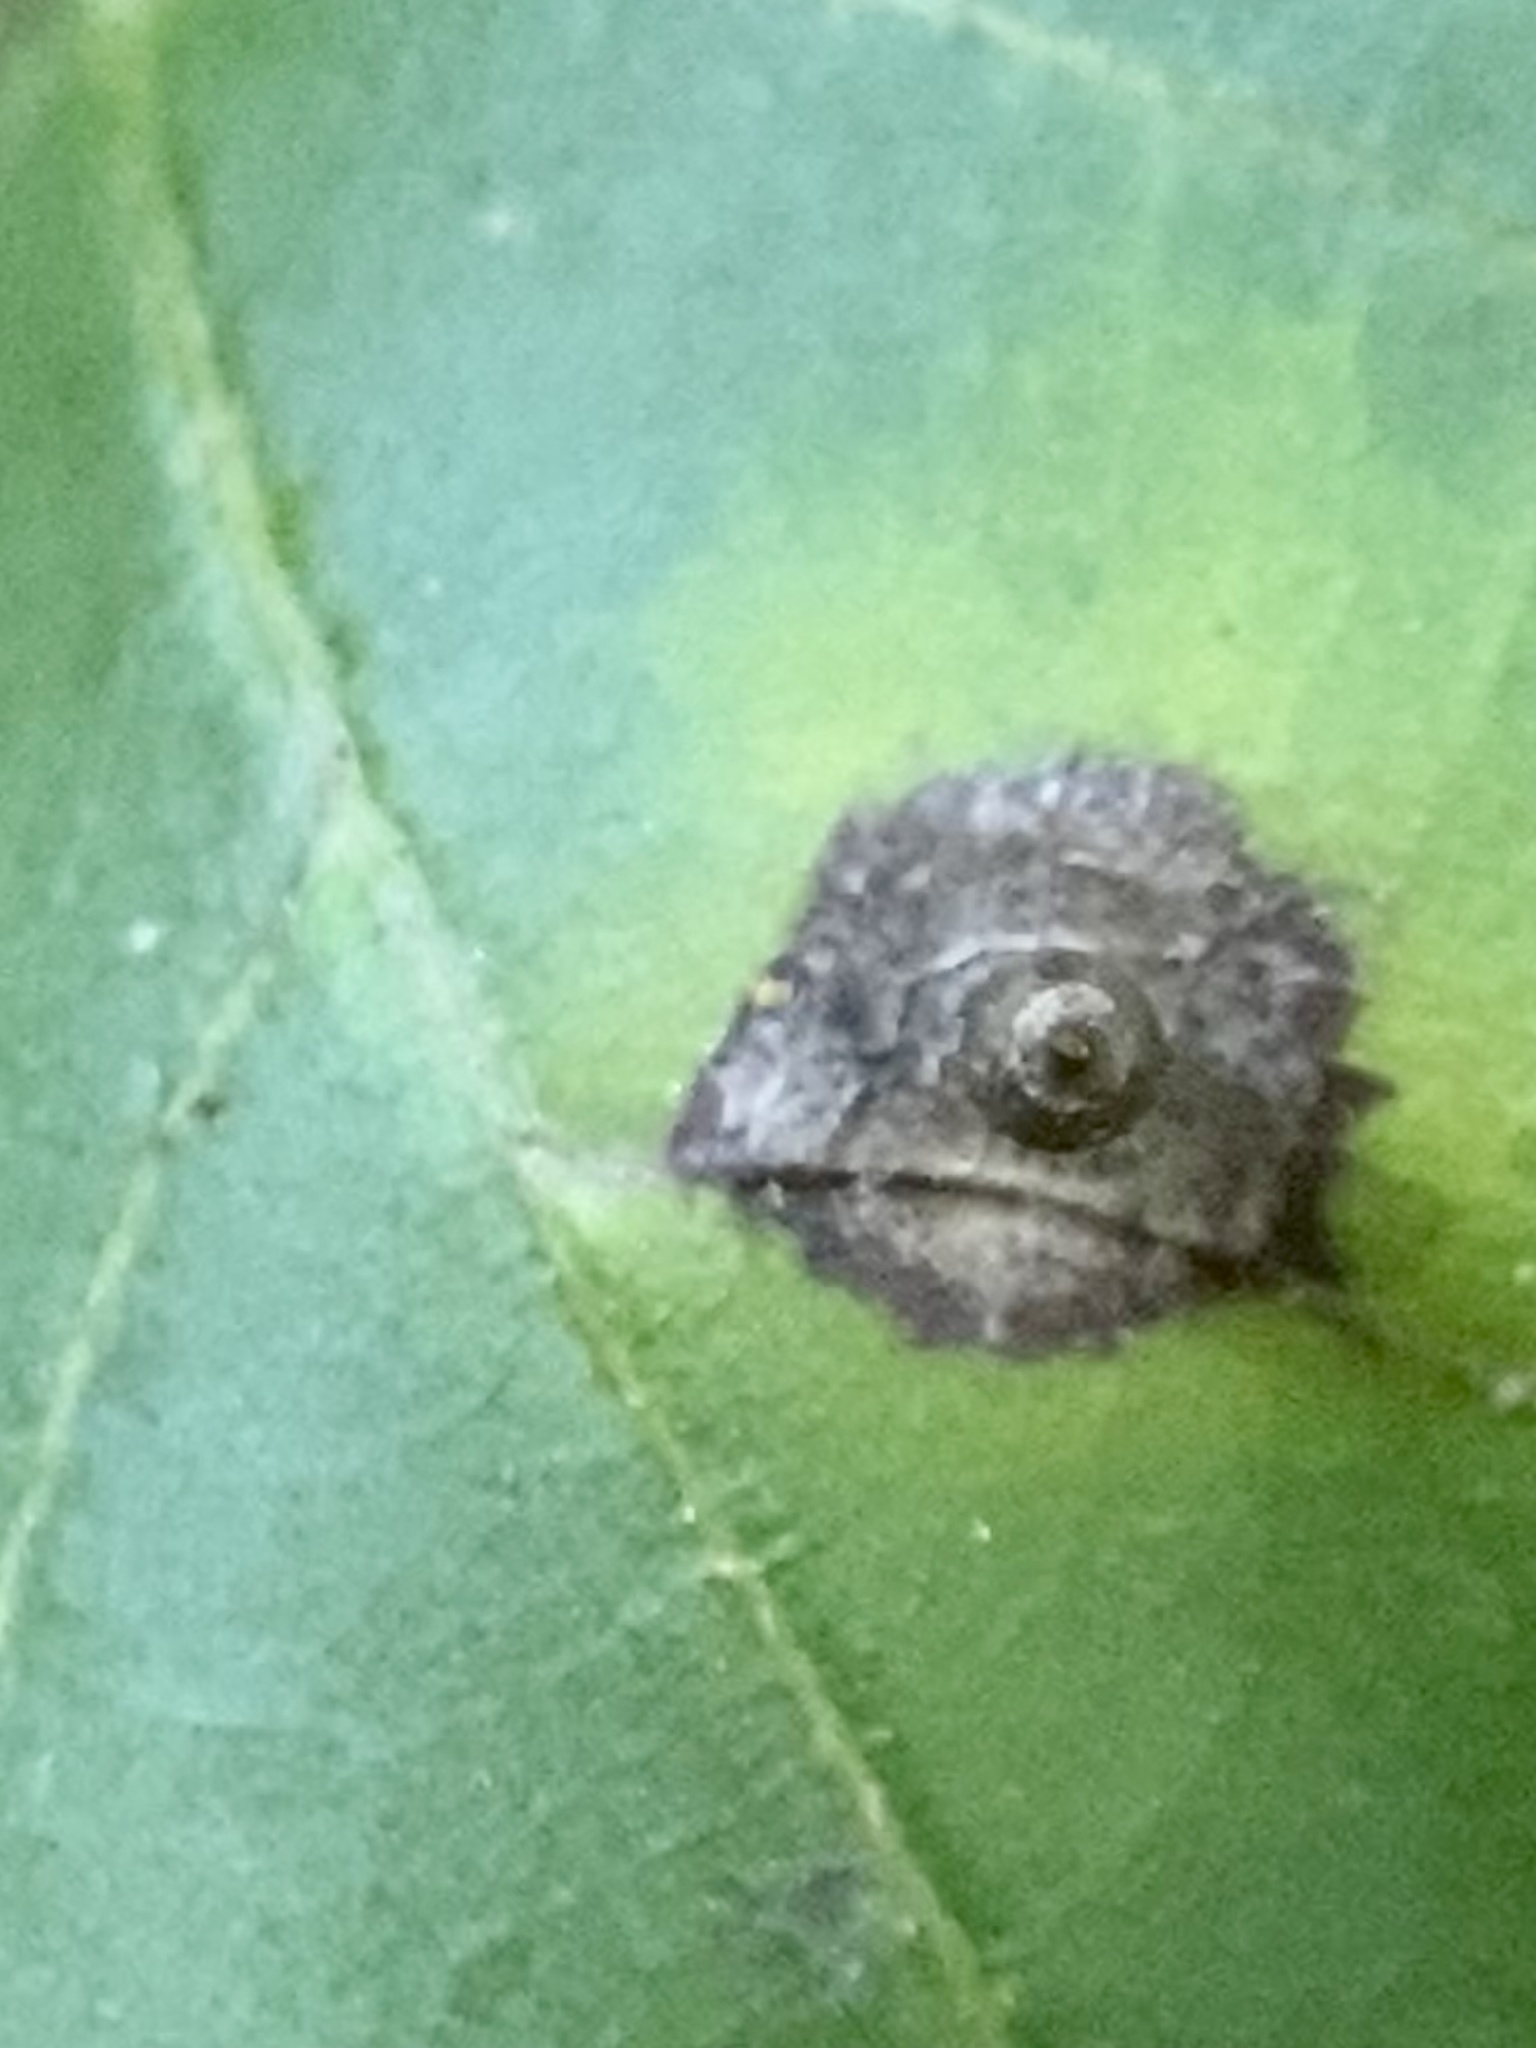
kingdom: Animalia
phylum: Arthropoda
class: Insecta
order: Diptera
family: Cecidomyiidae
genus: Caryomyia
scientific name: Caryomyia urnula
